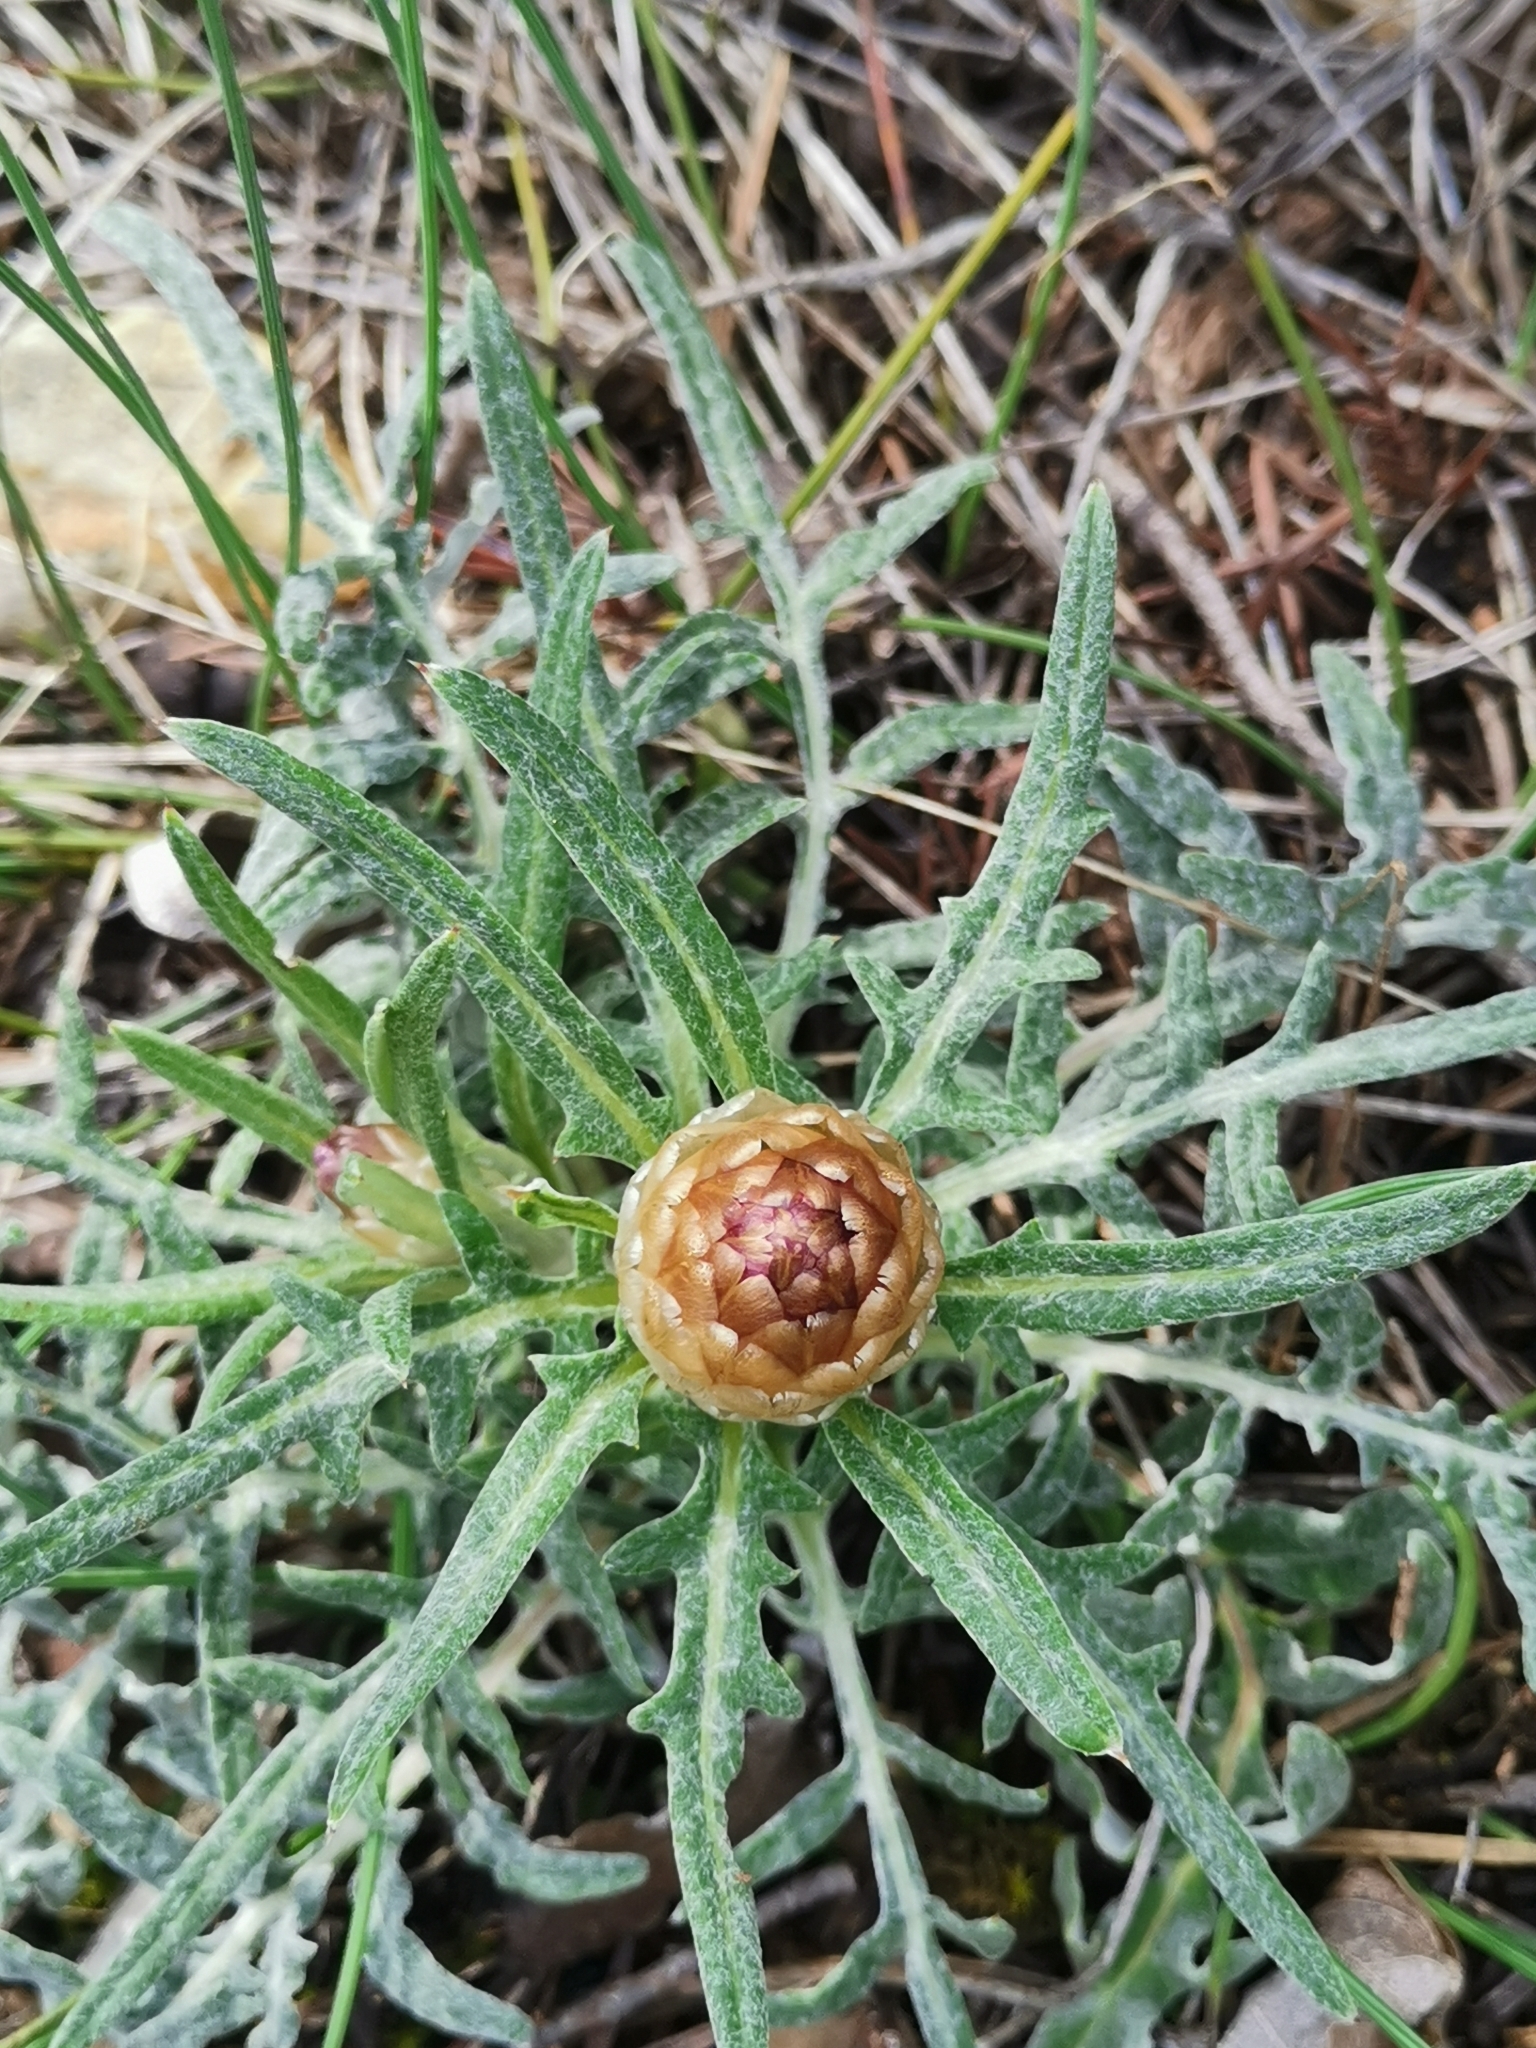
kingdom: Plantae
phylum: Tracheophyta
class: Magnoliopsida
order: Asterales
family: Asteraceae
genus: Leuzea
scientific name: Leuzea conifera
